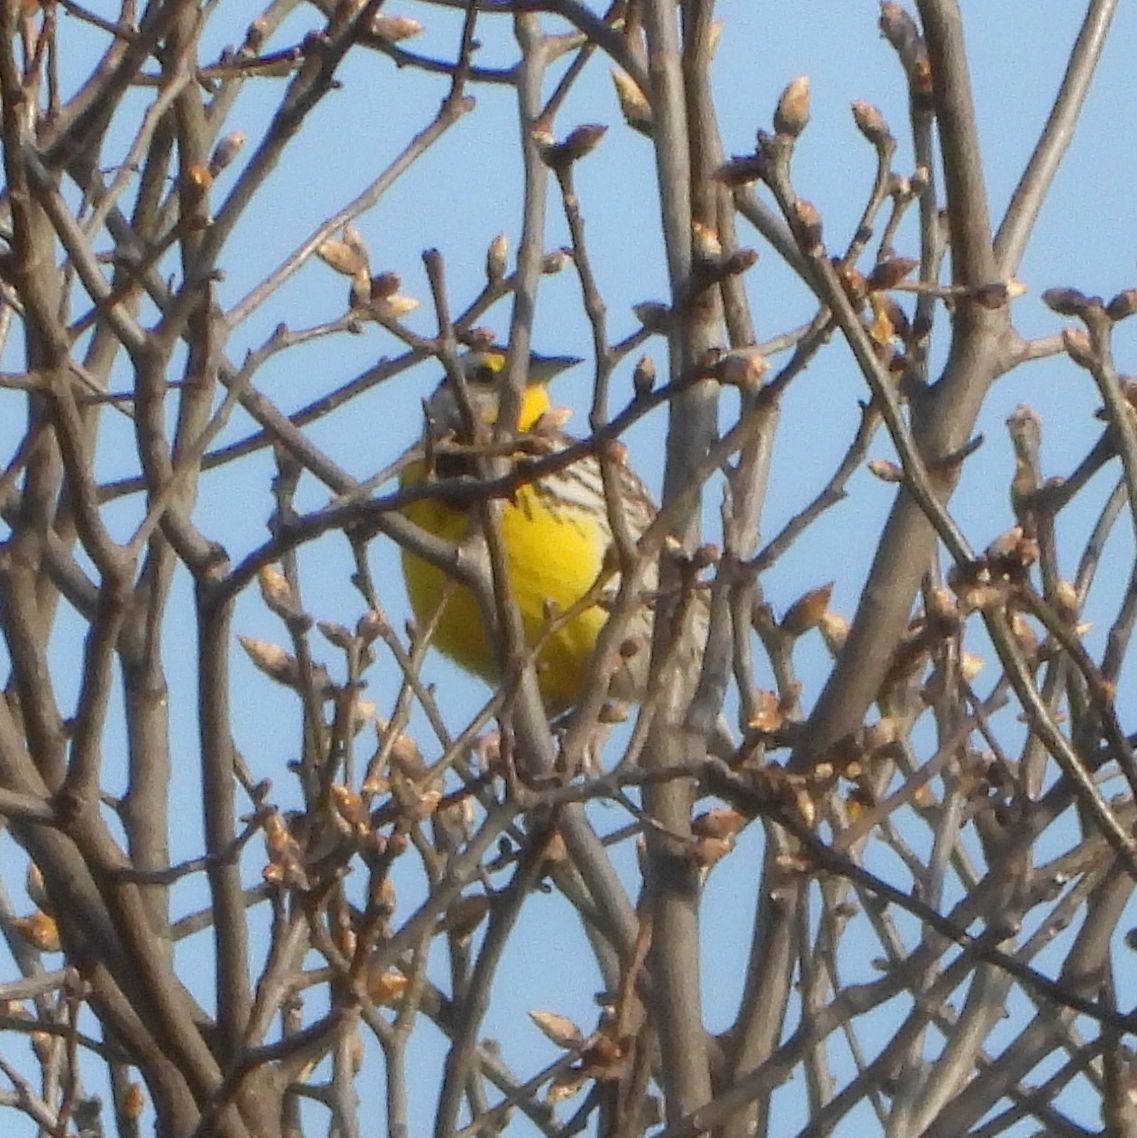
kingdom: Animalia
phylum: Chordata
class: Aves
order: Passeriformes
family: Icteridae
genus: Sturnella
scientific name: Sturnella magna
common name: Eastern meadowlark
